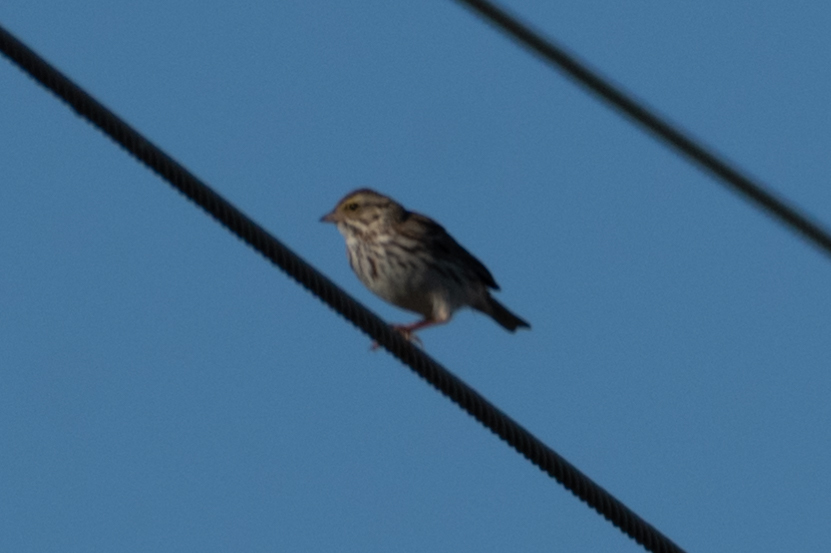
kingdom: Animalia
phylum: Chordata
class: Aves
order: Passeriformes
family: Passerellidae
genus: Passerculus
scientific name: Passerculus sandwichensis
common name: Savannah sparrow
